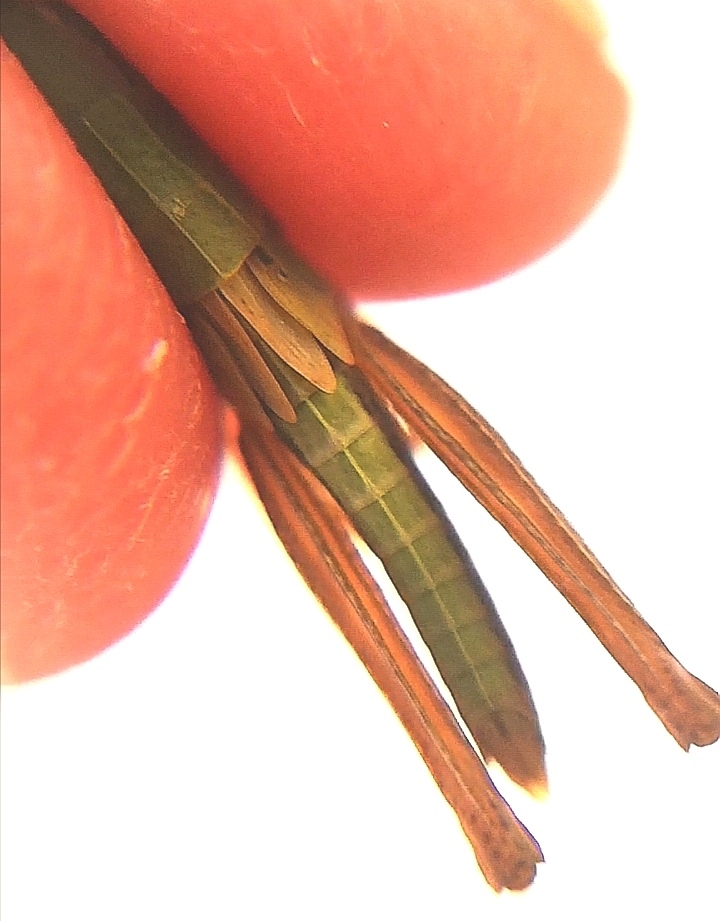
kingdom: Animalia
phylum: Arthropoda
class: Insecta
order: Orthoptera
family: Acrididae
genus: Pseudochorthippus
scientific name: Pseudochorthippus parallelus
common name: Meadow grasshopper
